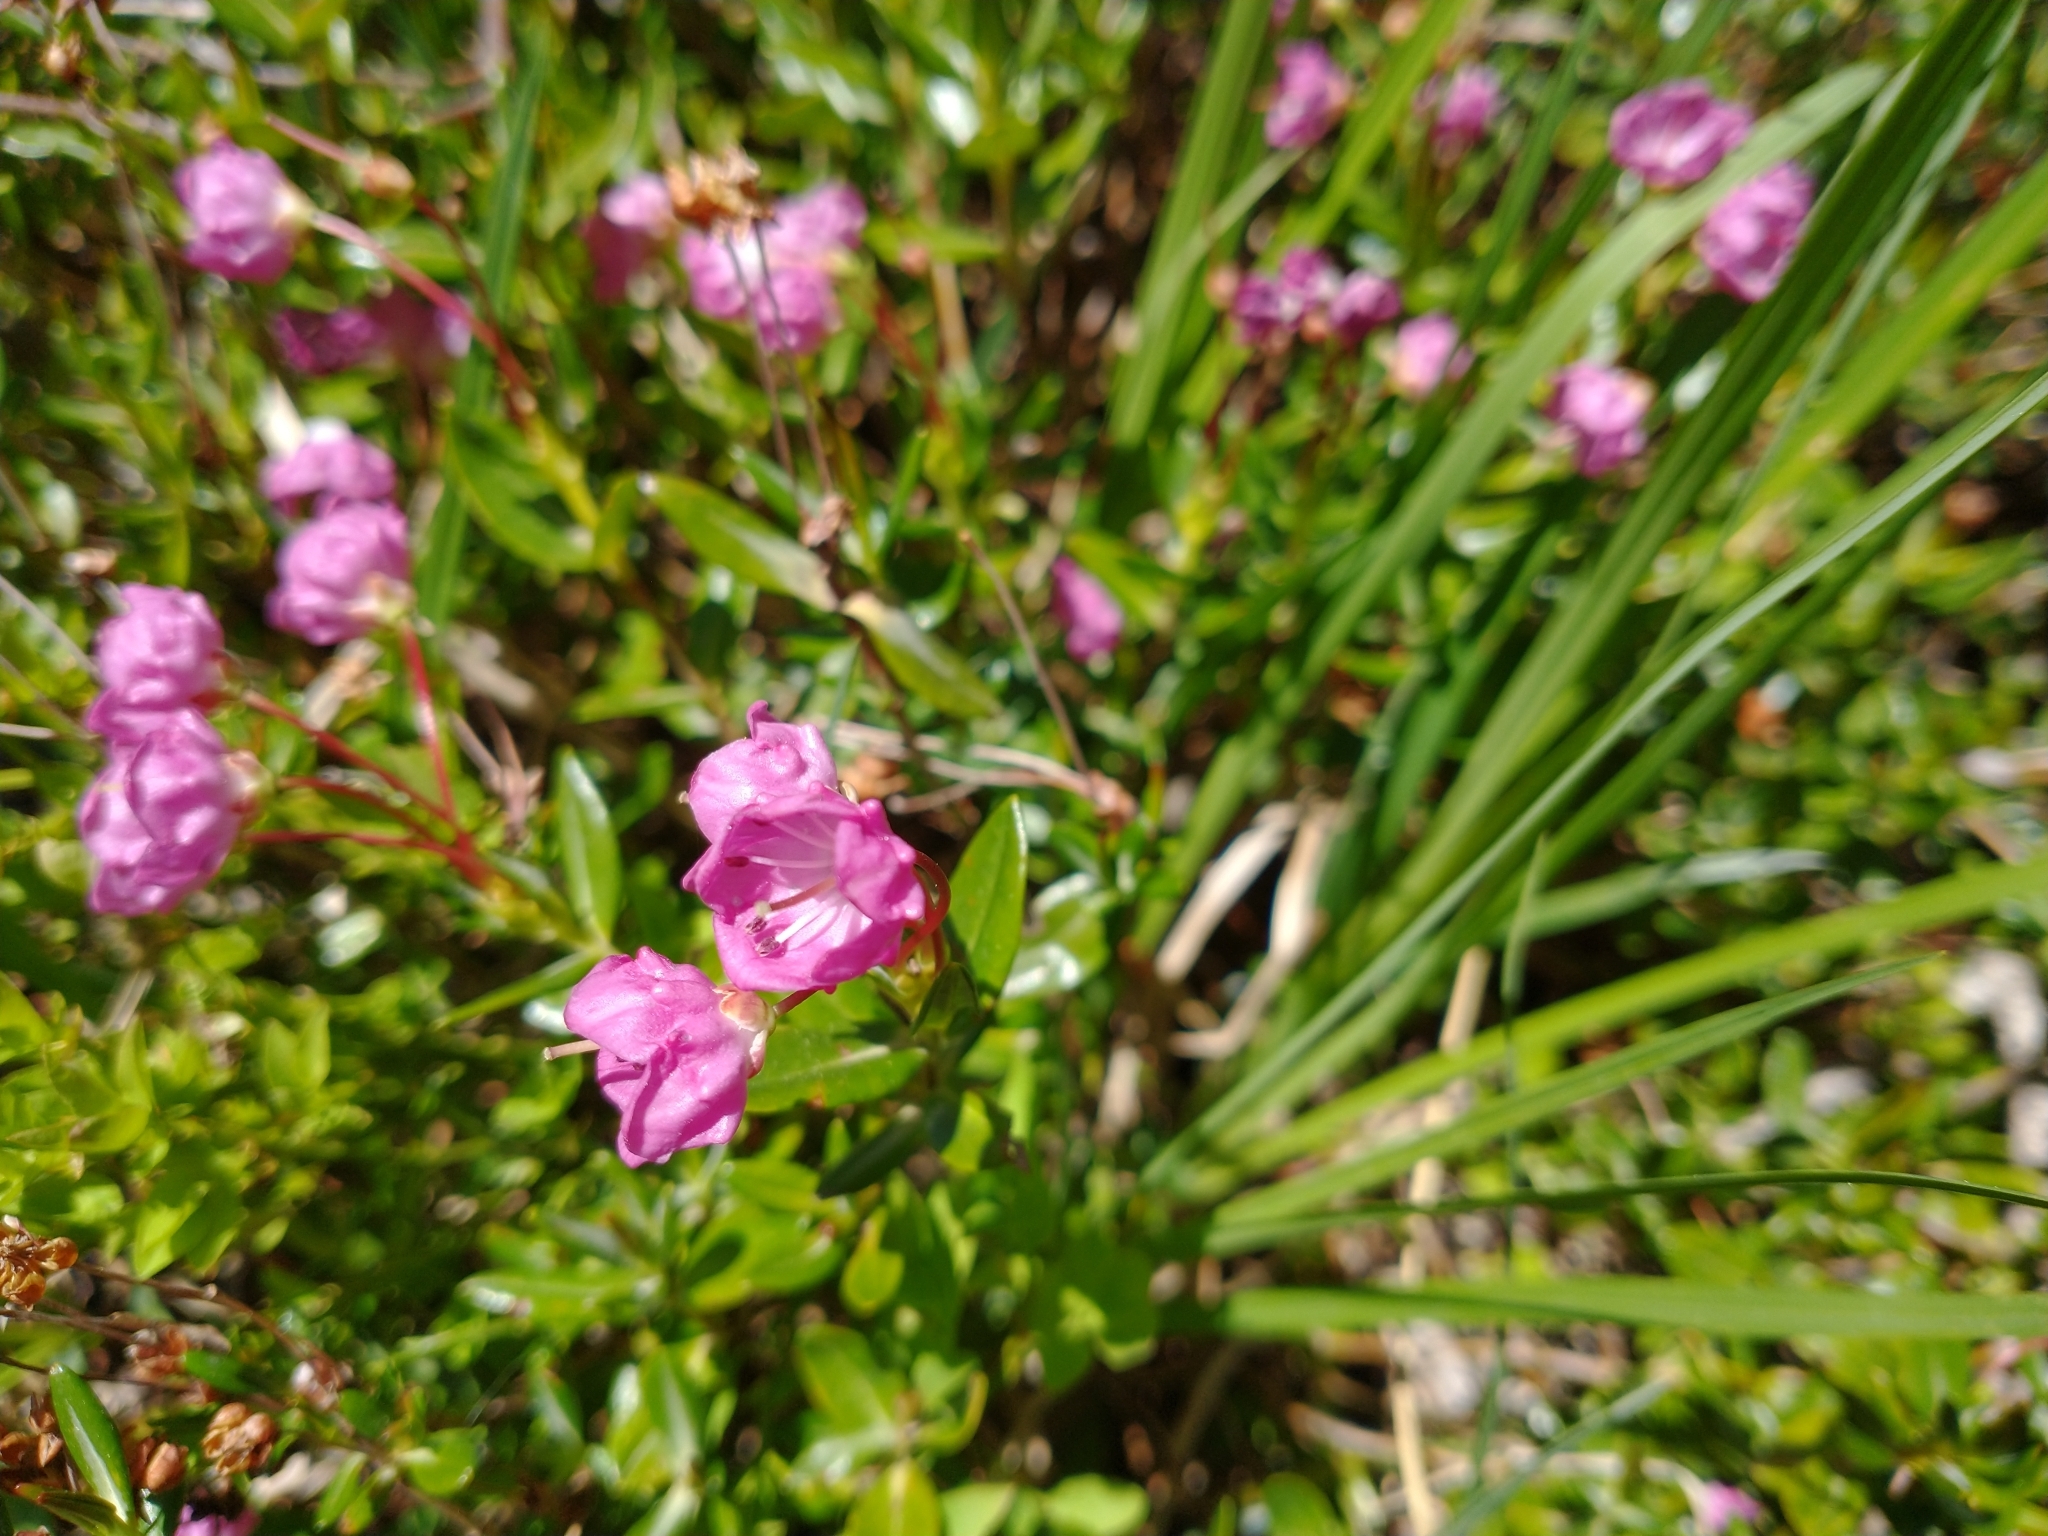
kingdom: Plantae
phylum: Tracheophyta
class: Magnoliopsida
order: Ericales
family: Ericaceae
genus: Kalmia
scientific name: Kalmia microphylla
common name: Alpine bog laurel
